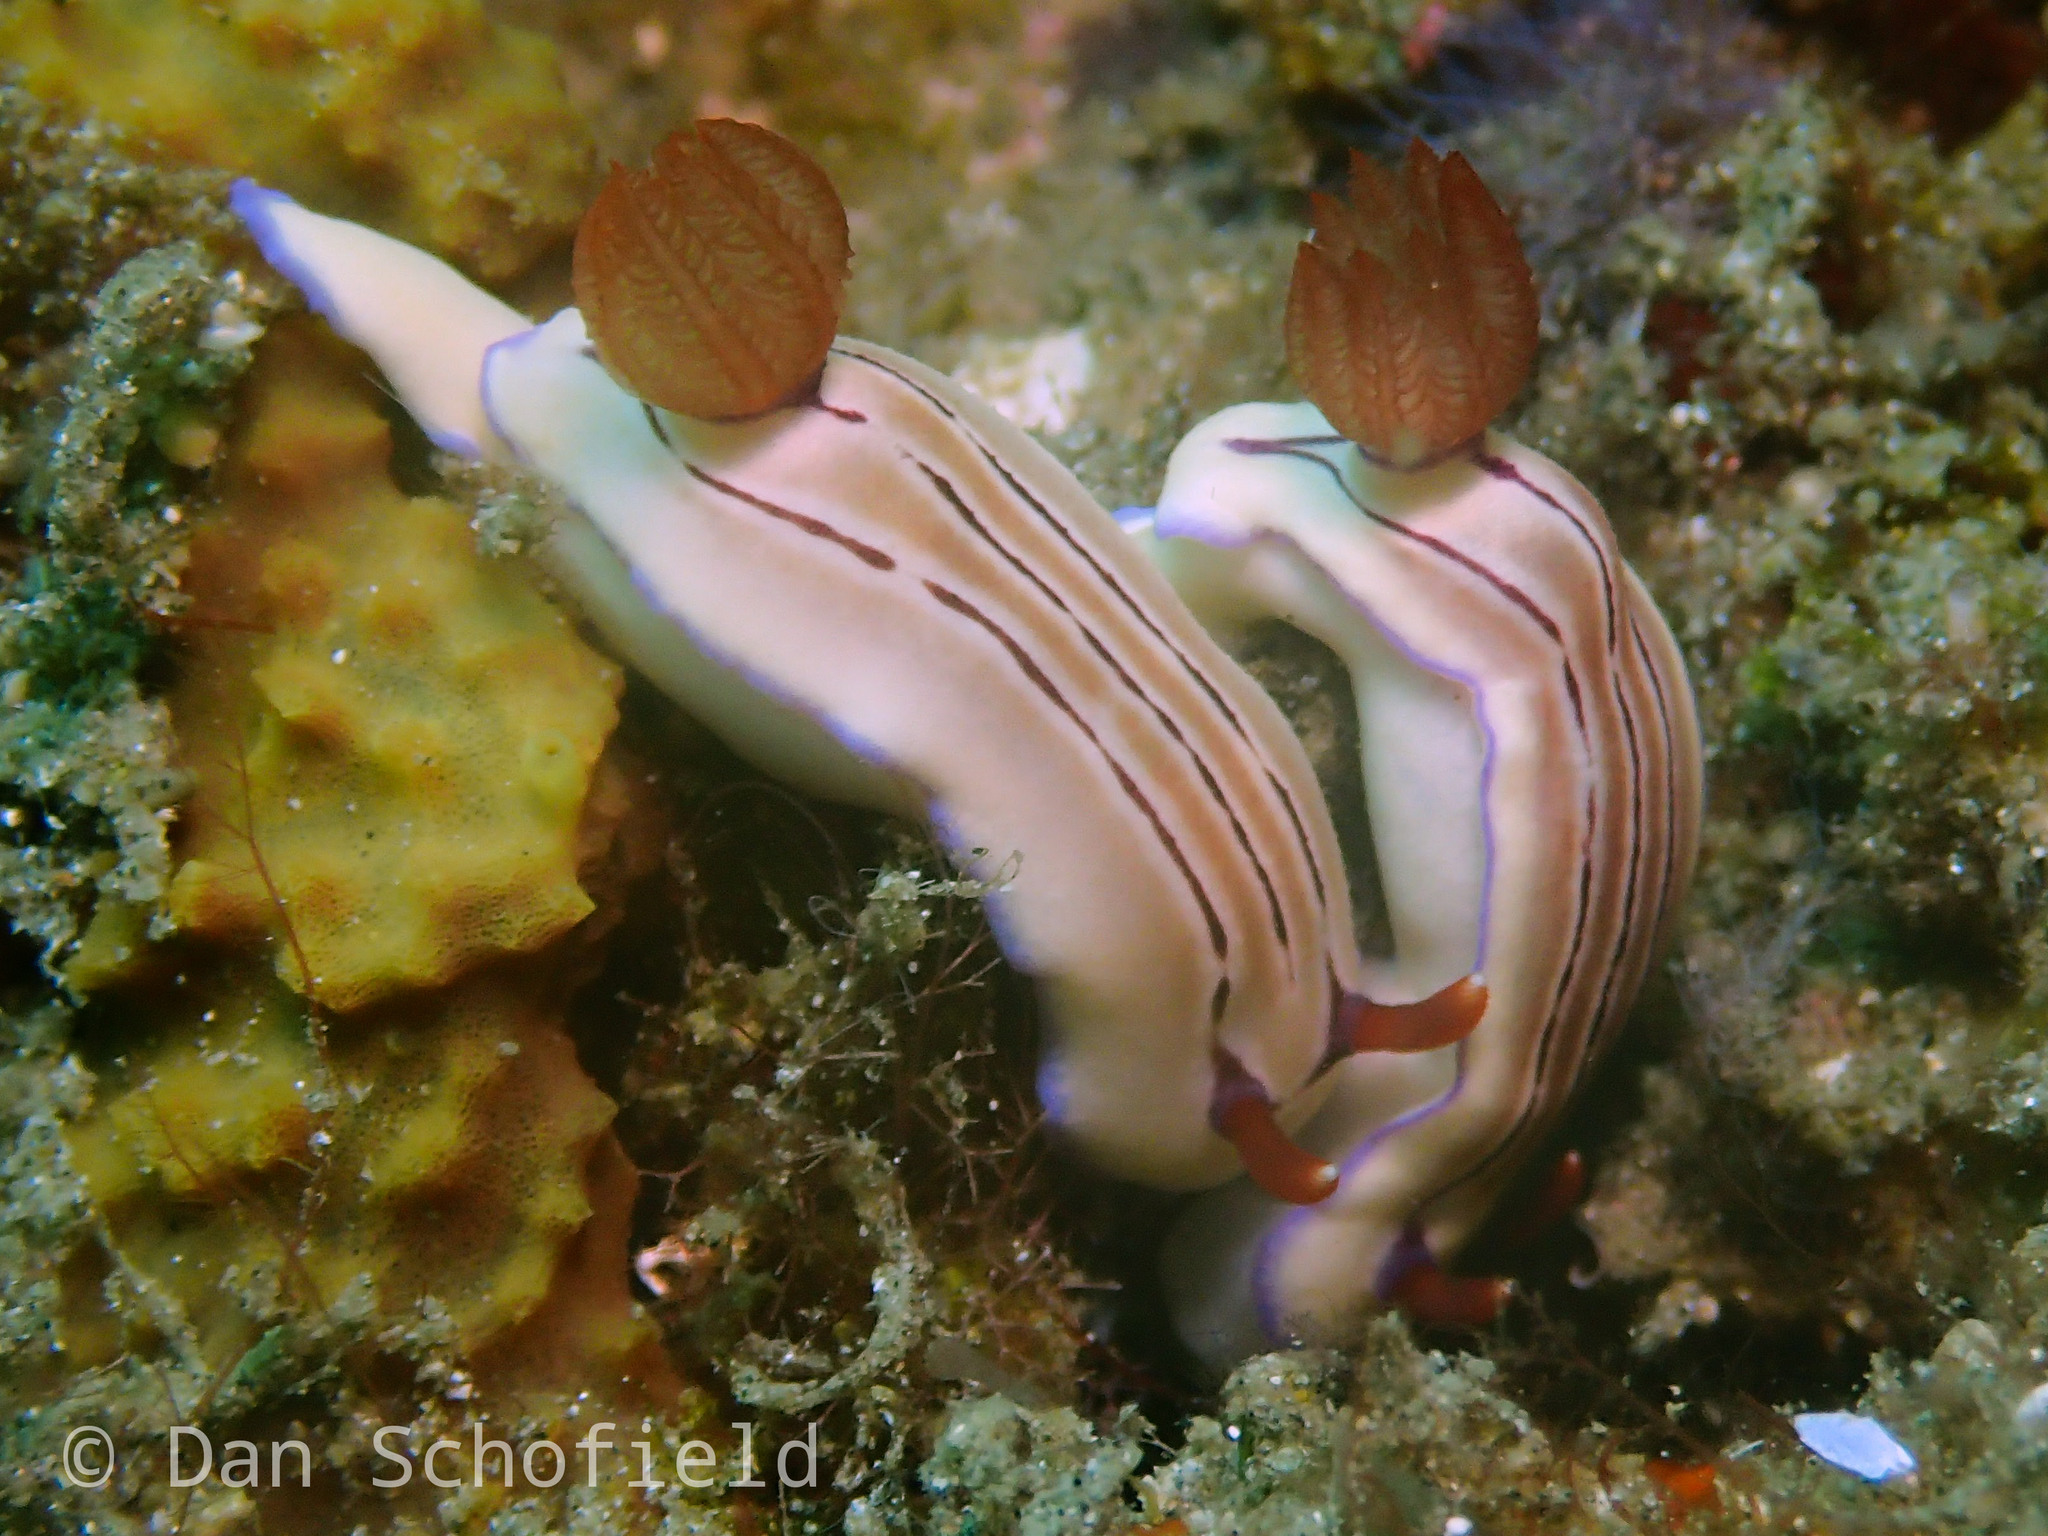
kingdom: Animalia
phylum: Mollusca
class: Gastropoda
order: Nudibranchia
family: Chromodorididae
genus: Hypselodoris
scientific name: Hypselodoris emma
